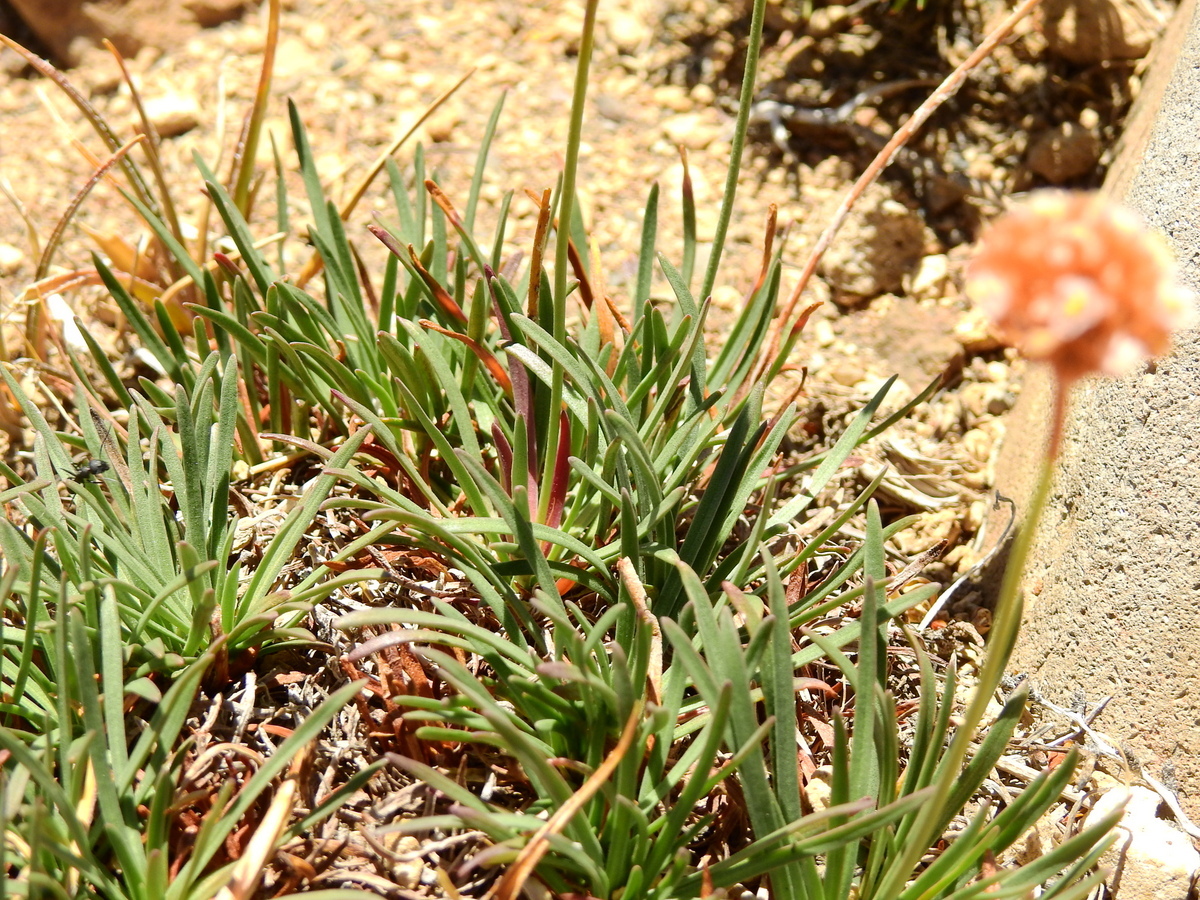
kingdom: Plantae
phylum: Tracheophyta
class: Magnoliopsida
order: Caryophyllales
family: Plumbaginaceae
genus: Armeria
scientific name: Armeria curvifolia
